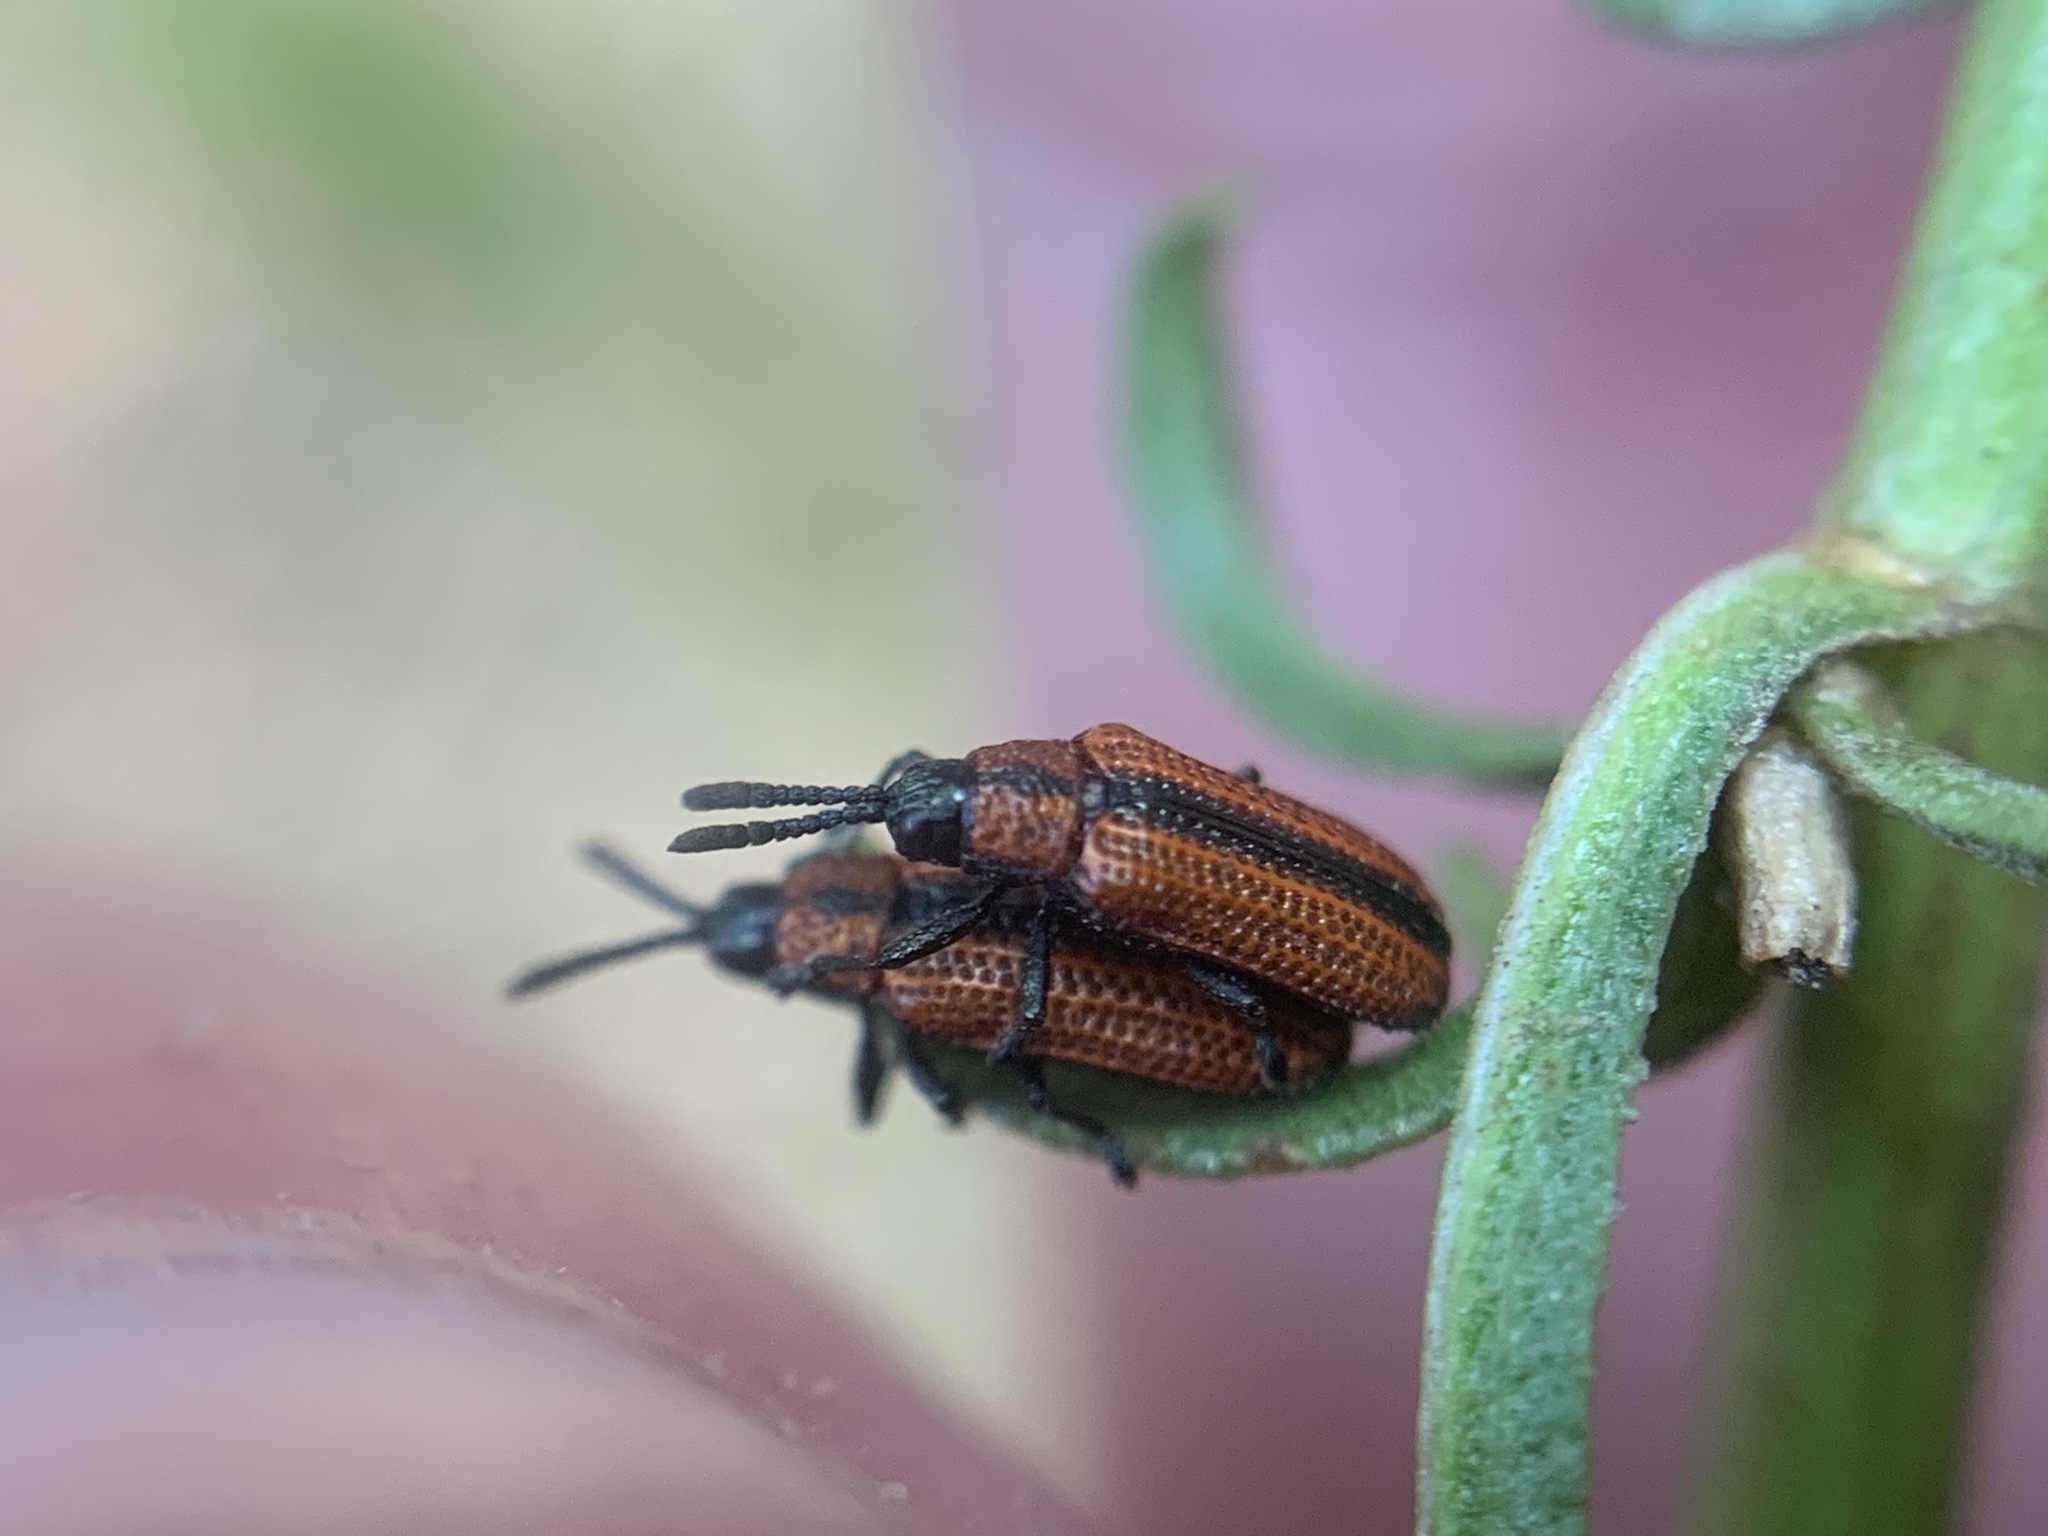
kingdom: Animalia
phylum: Arthropoda
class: Insecta
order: Coleoptera
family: Chrysomelidae
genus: Microrhopala
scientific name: Microrhopala arizonica
